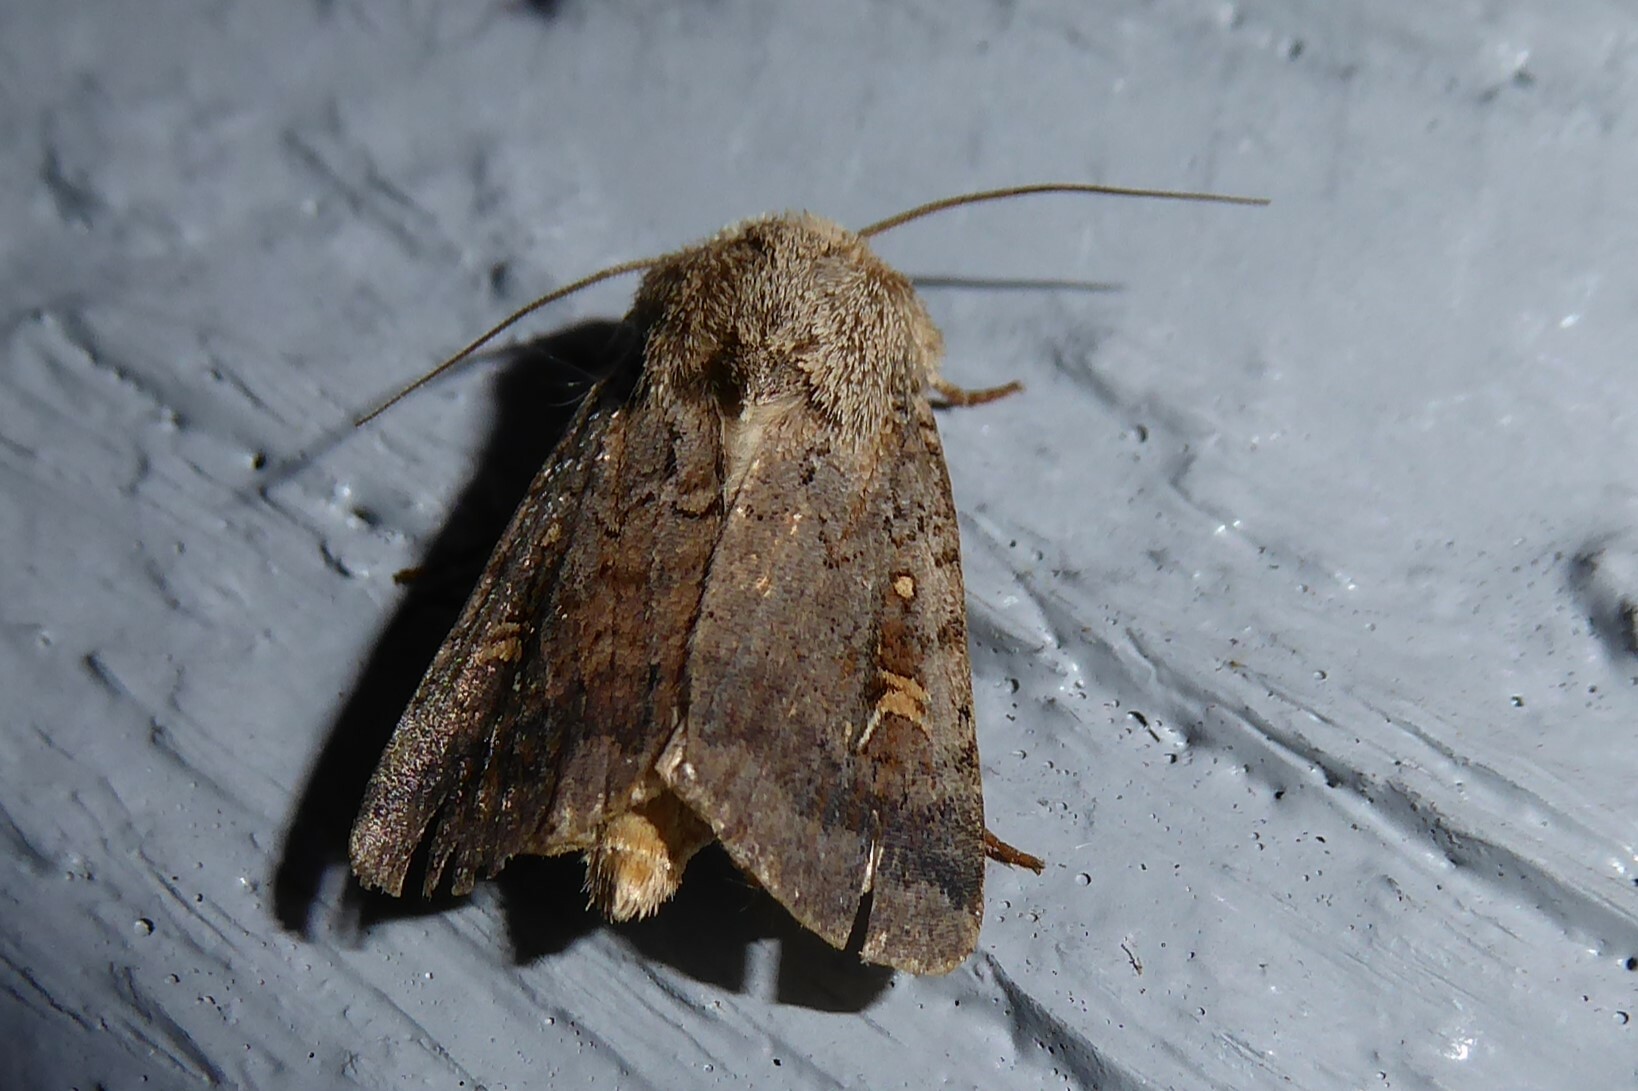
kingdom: Animalia
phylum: Arthropoda
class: Insecta
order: Lepidoptera
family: Noctuidae
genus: Proteuxoa
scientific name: Proteuxoa tetronycha
